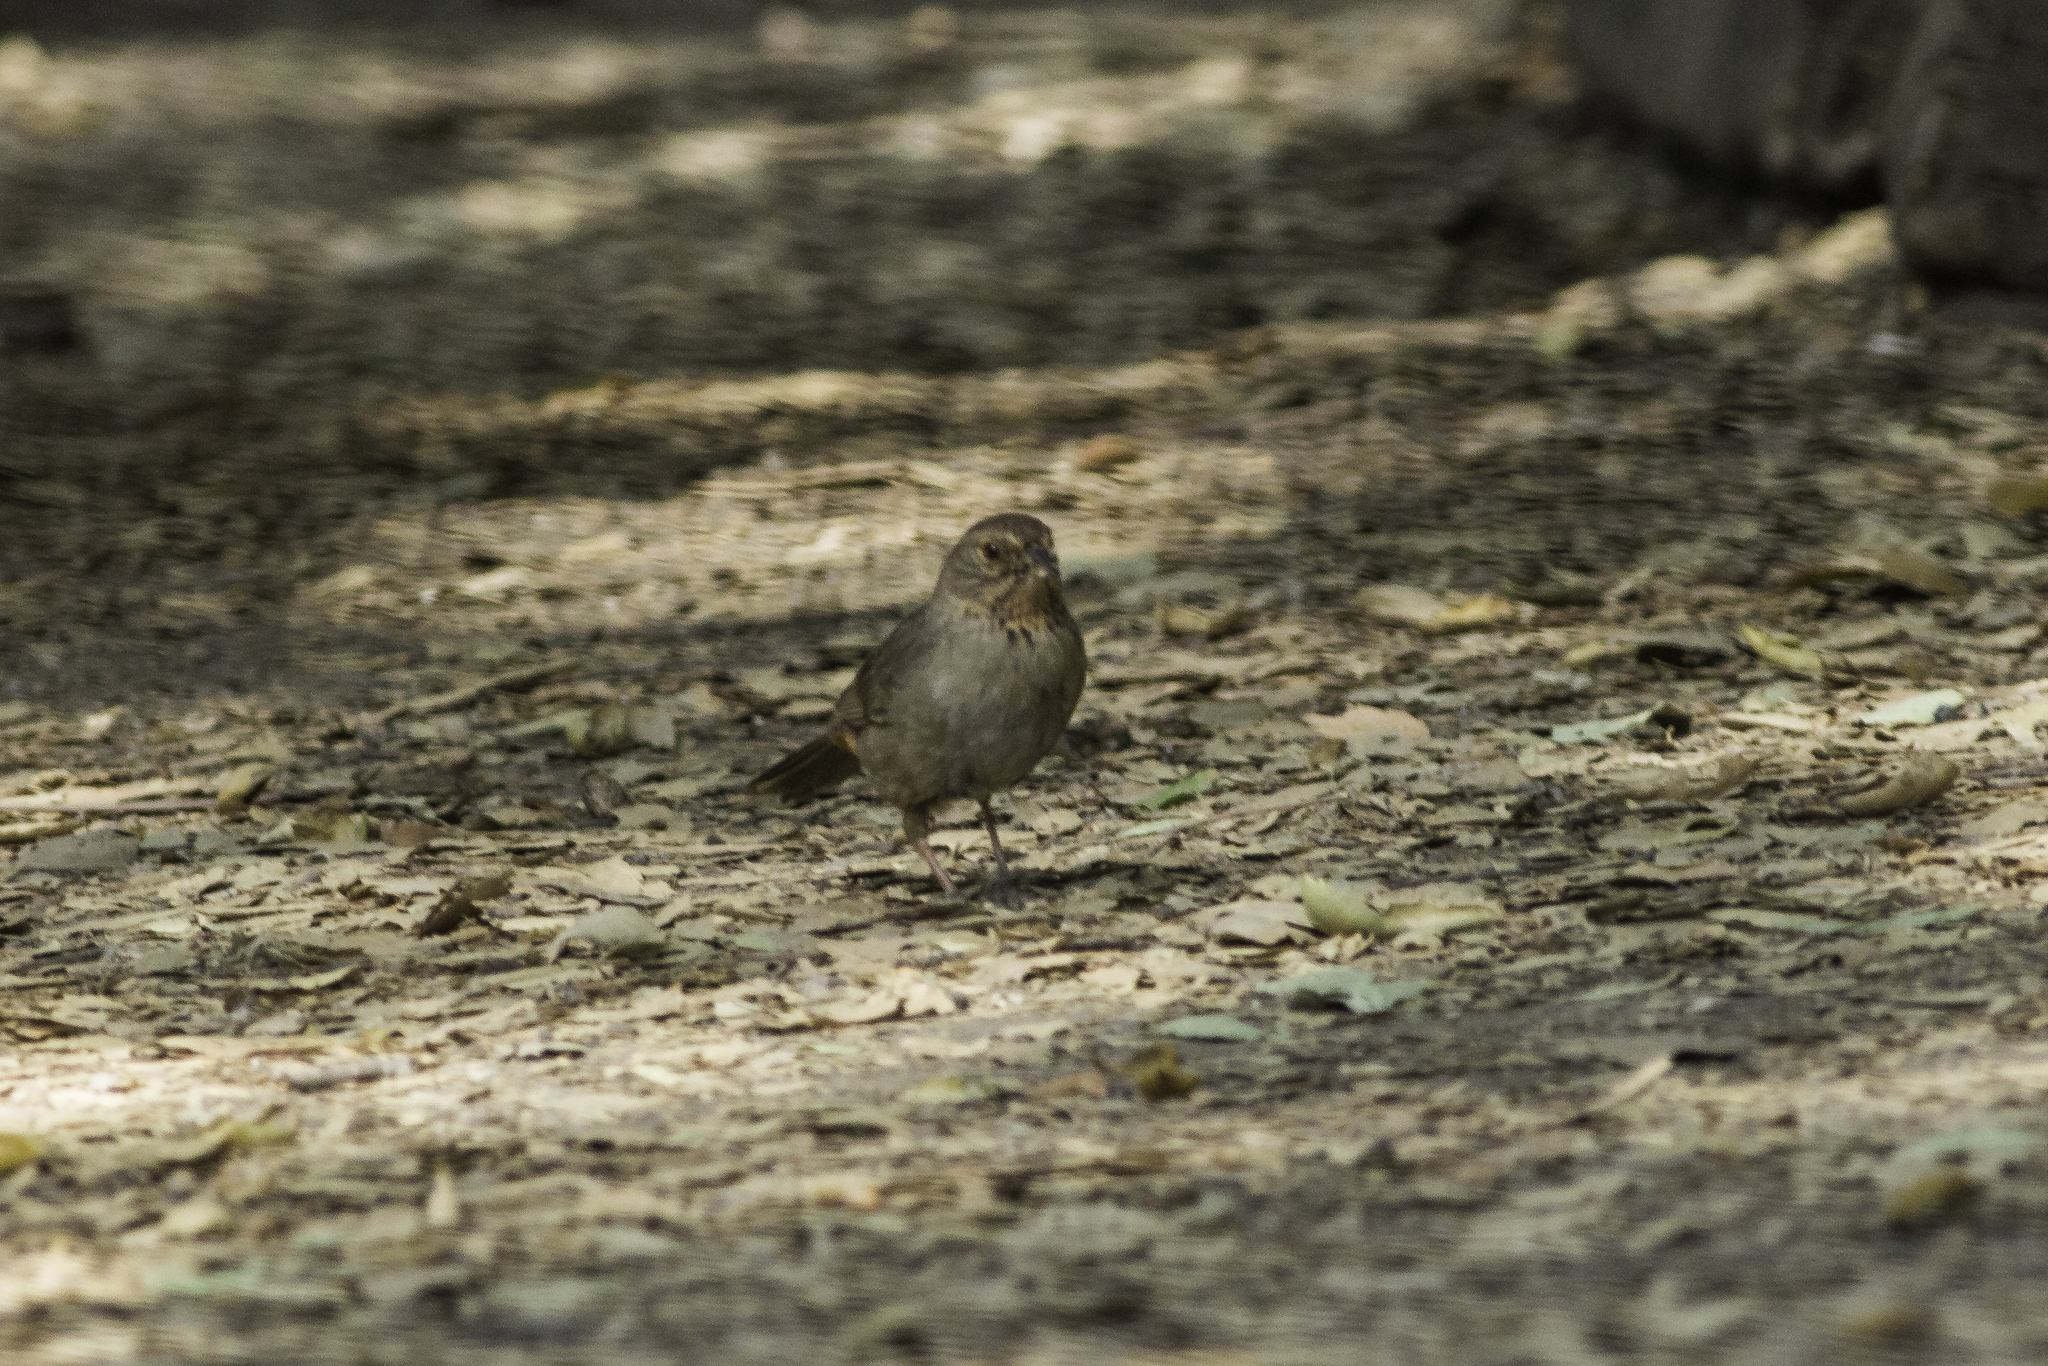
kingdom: Animalia
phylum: Chordata
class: Aves
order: Passeriformes
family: Passerellidae
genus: Melozone
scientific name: Melozone crissalis
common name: California towhee
